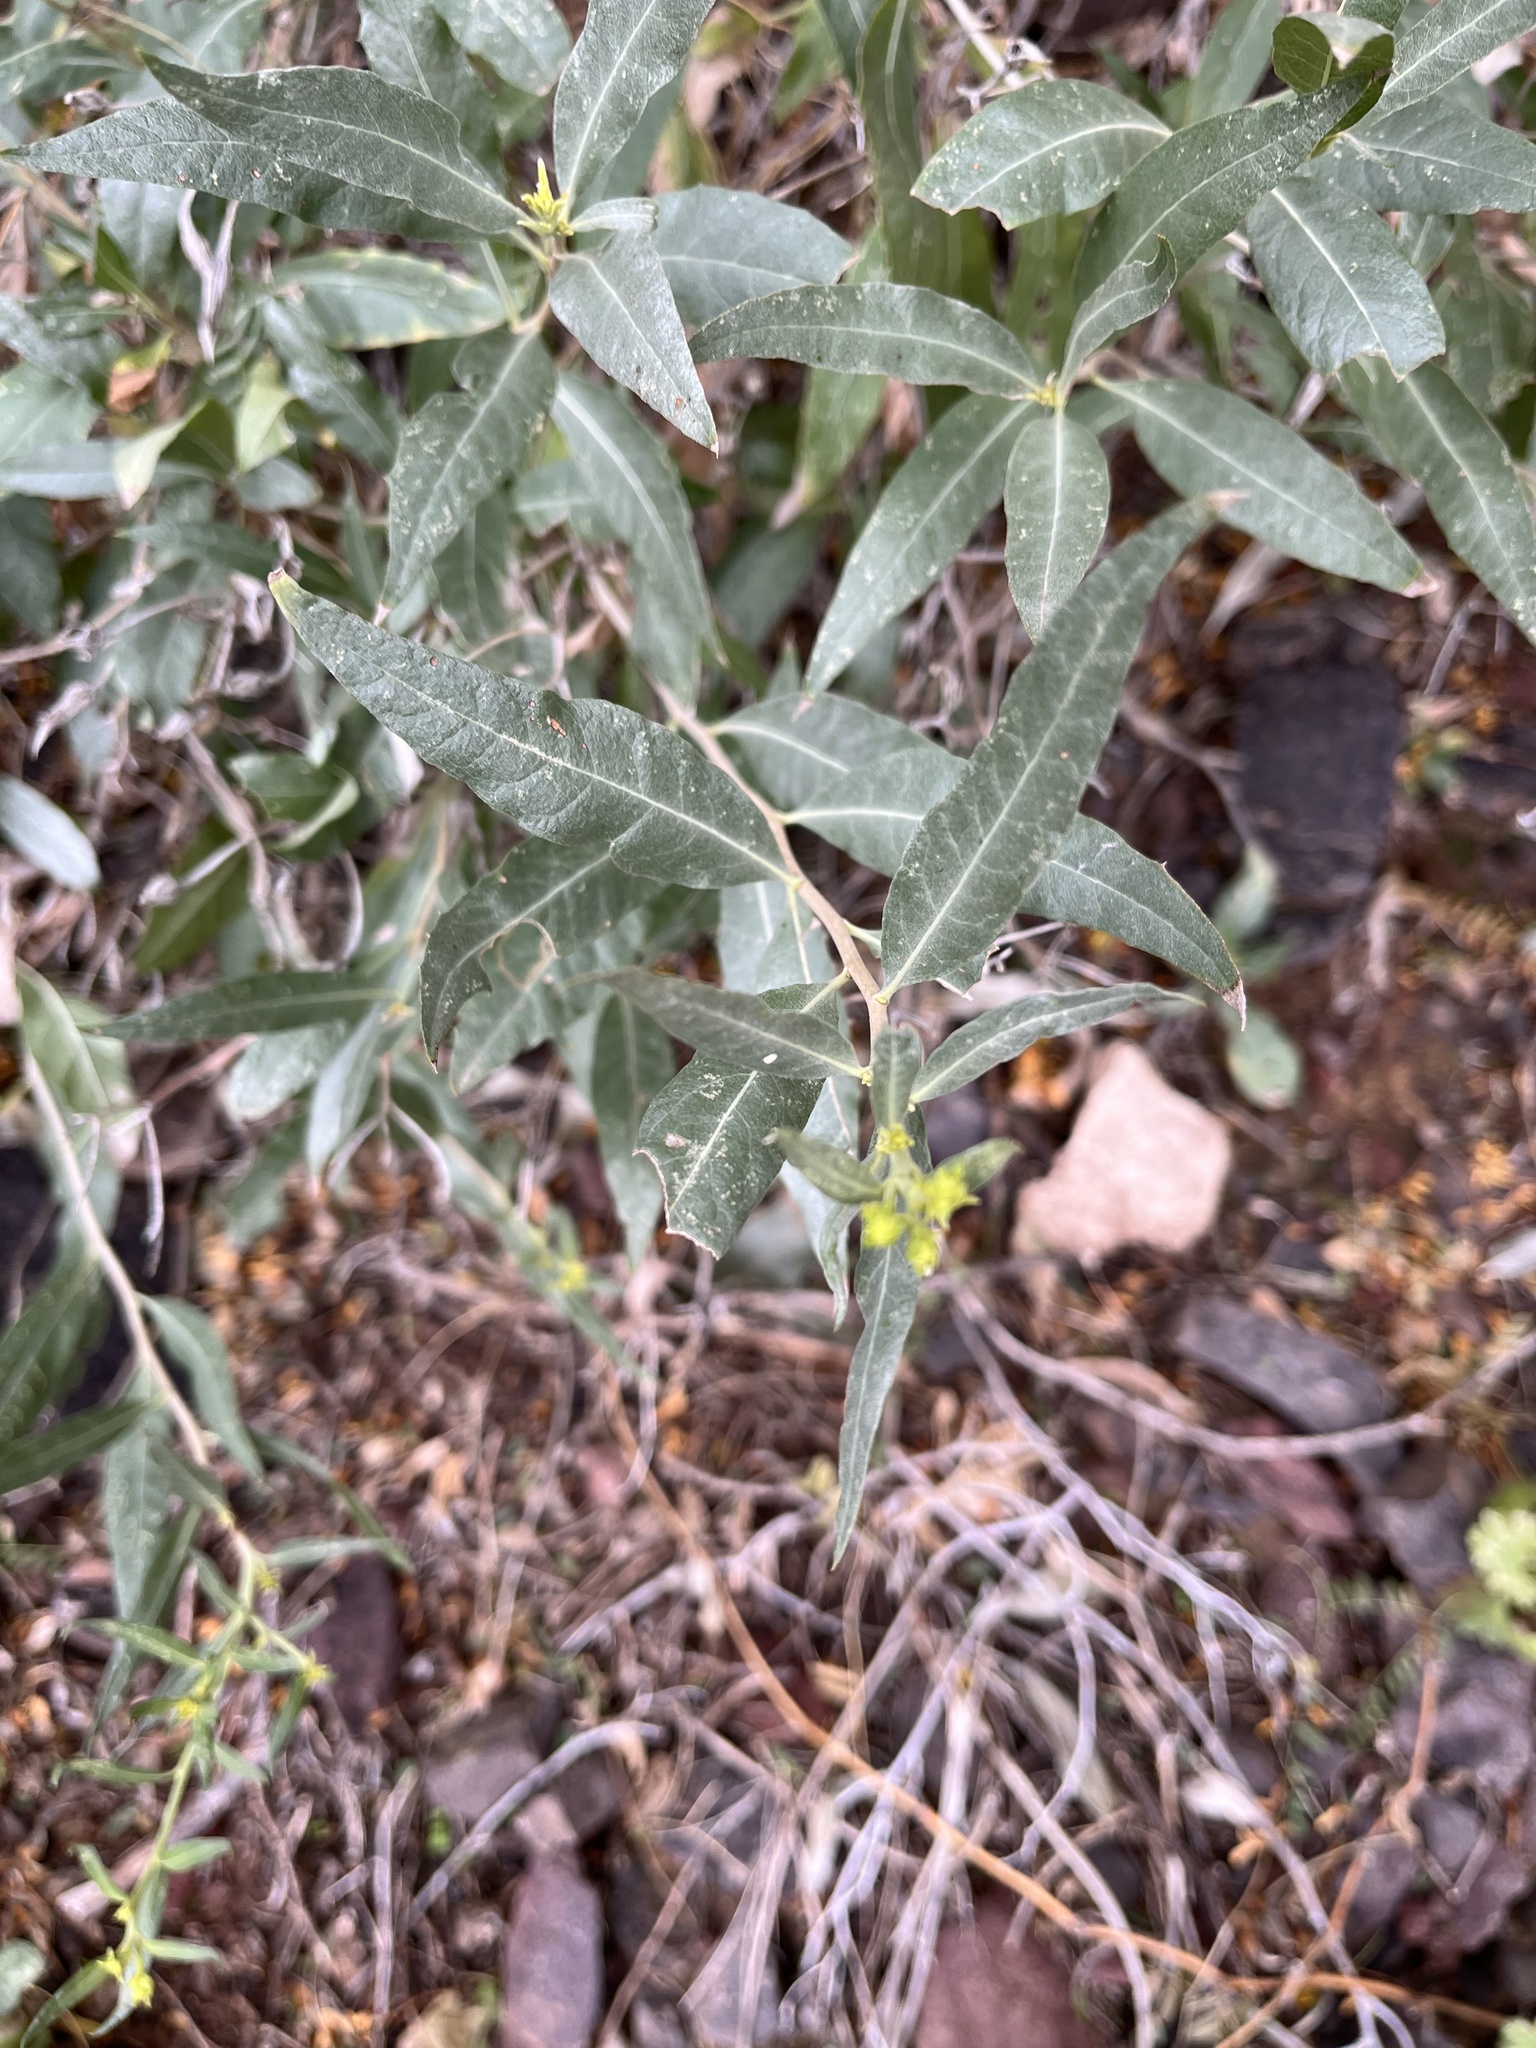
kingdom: Plantae
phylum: Tracheophyta
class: Magnoliopsida
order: Asterales
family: Asteraceae
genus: Trixis
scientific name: Trixis californica
